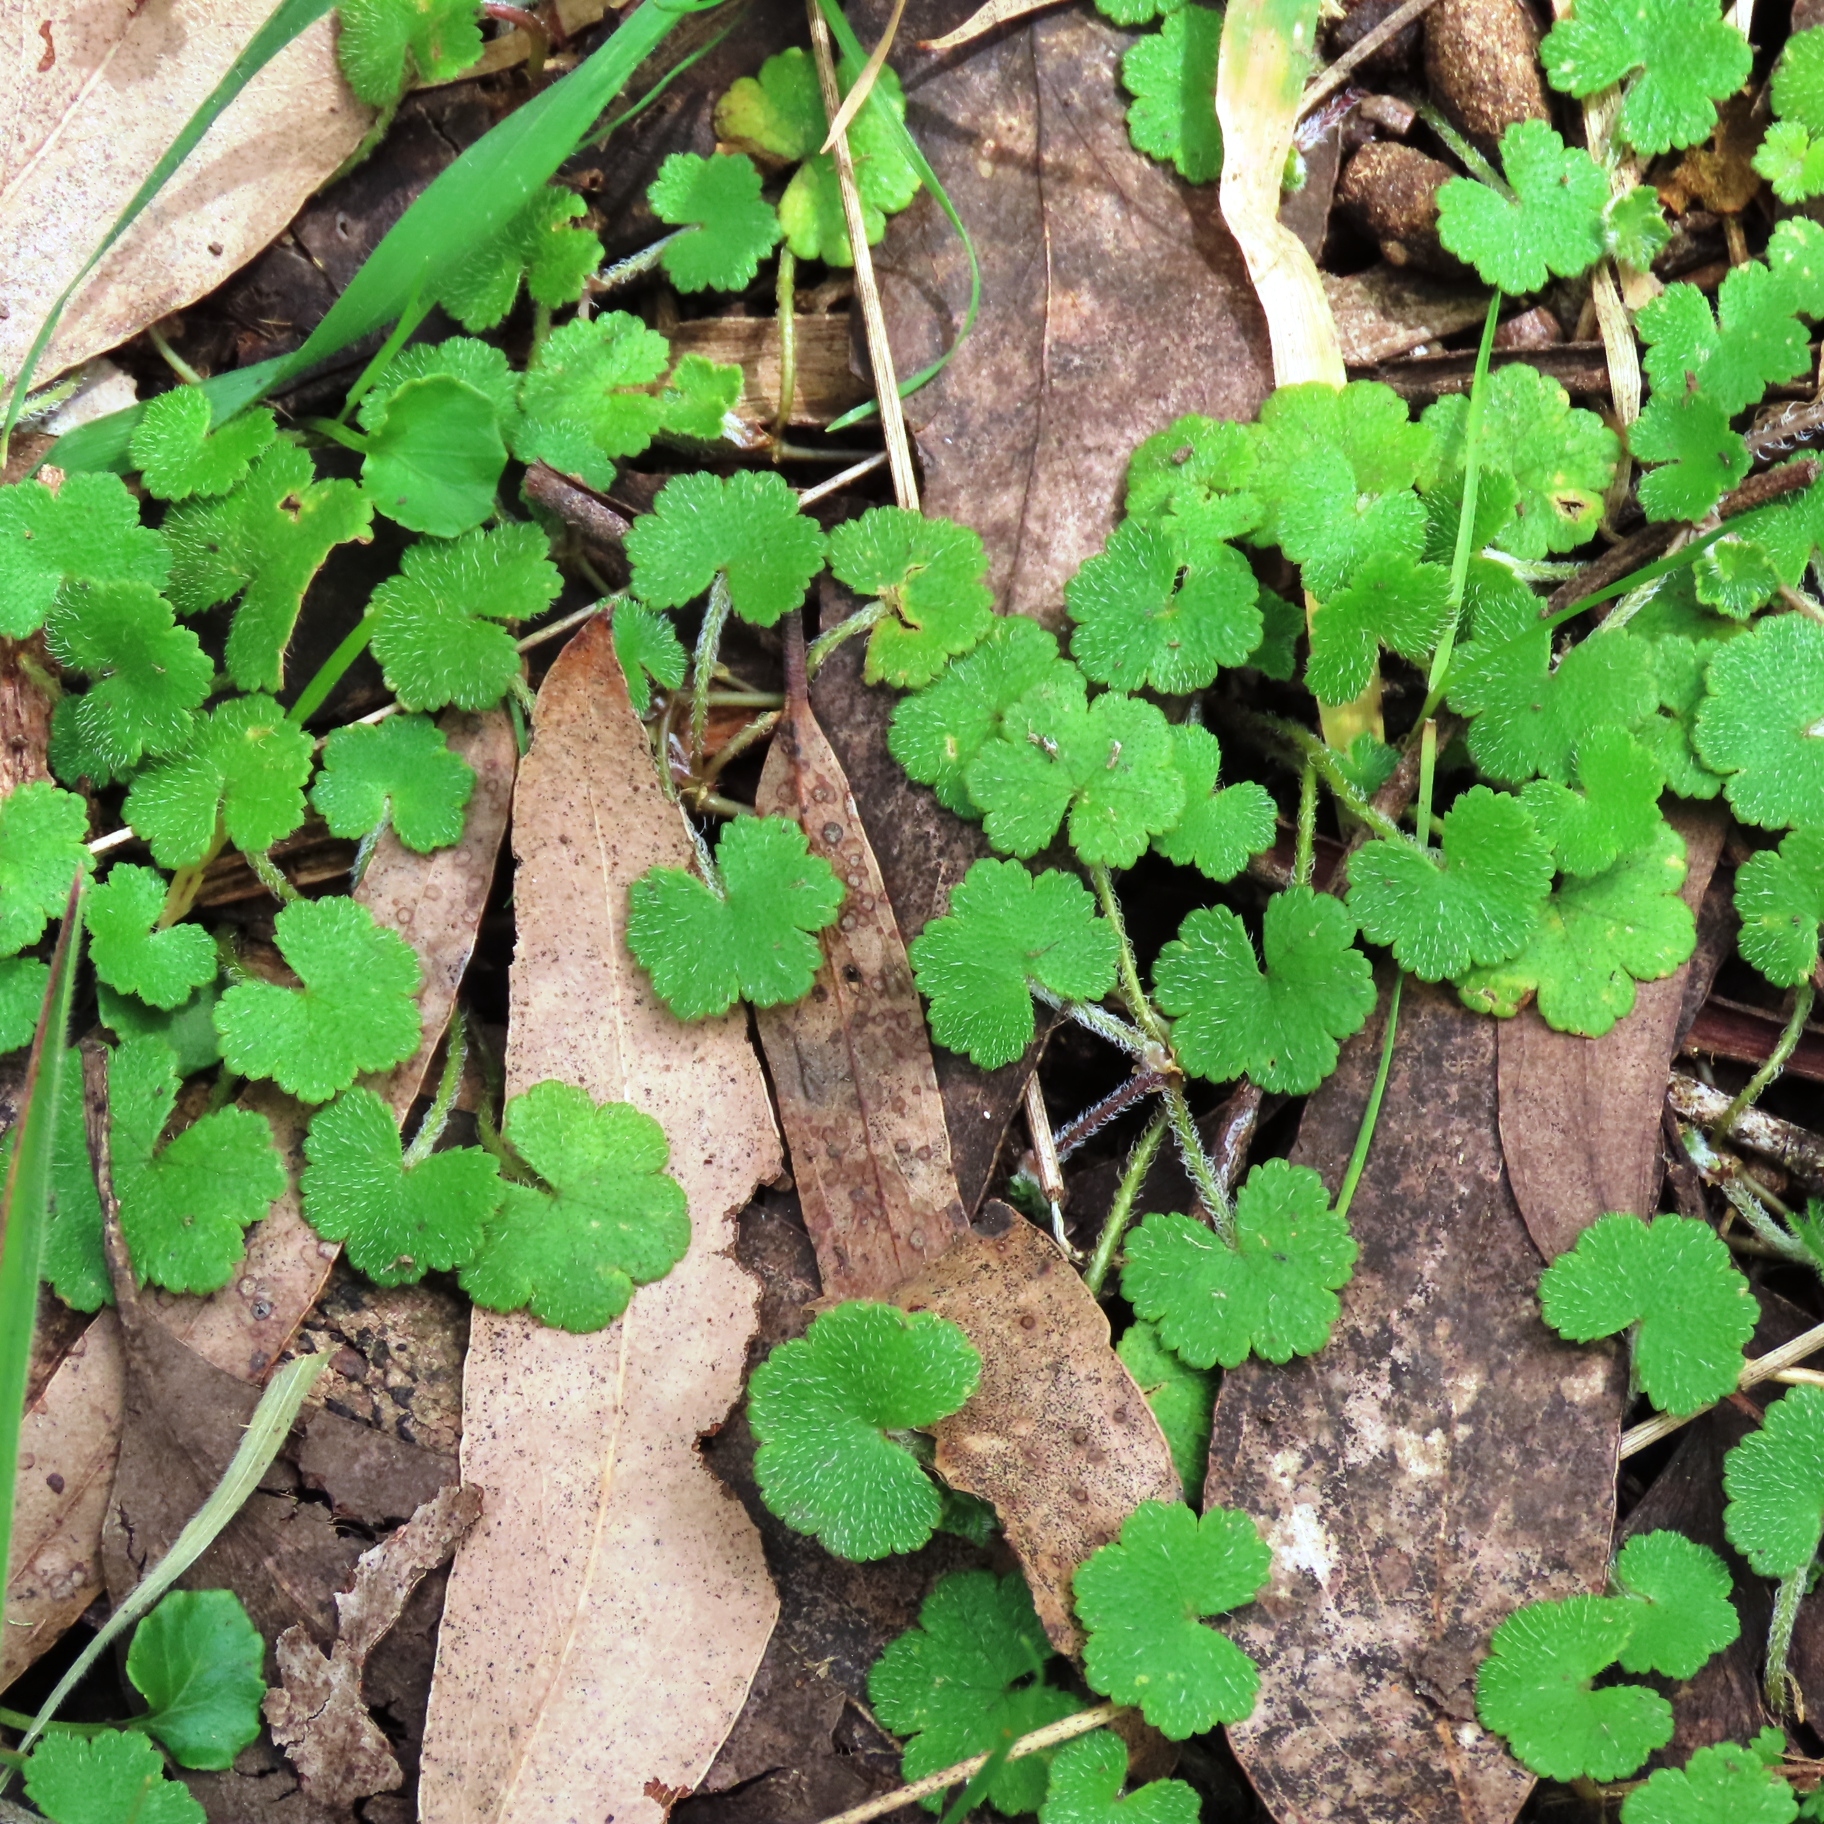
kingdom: Plantae
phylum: Tracheophyta
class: Magnoliopsida
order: Apiales
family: Araliaceae
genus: Hydrocotyle
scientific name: Hydrocotyle laxiflora
